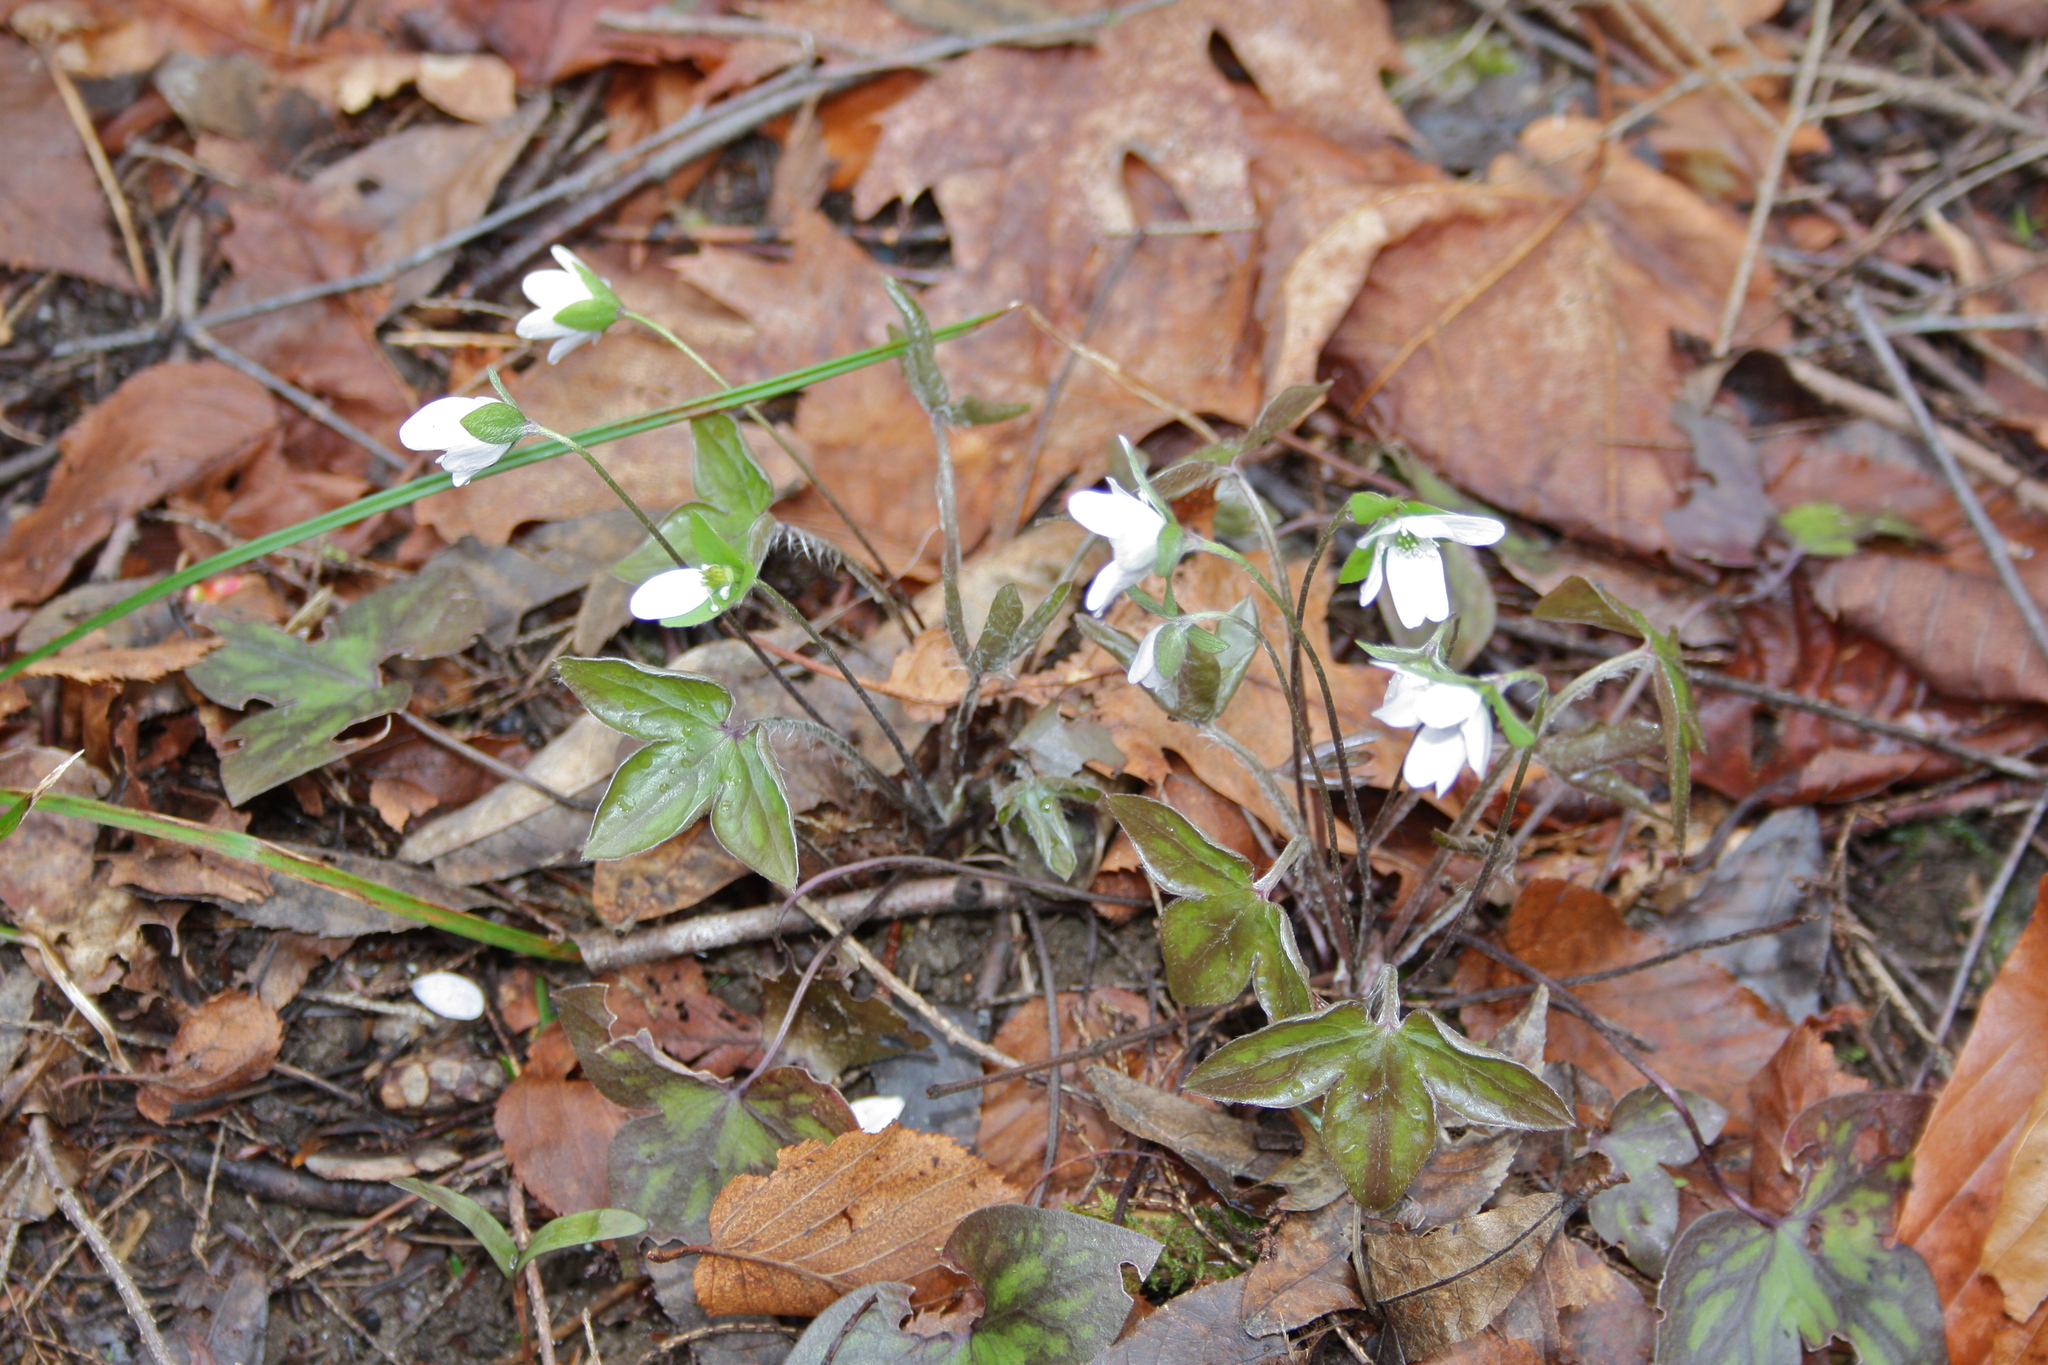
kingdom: Plantae
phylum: Tracheophyta
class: Magnoliopsida
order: Ranunculales
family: Ranunculaceae
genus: Hepatica
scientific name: Hepatica acutiloba
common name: Sharp-lobed hepatica
